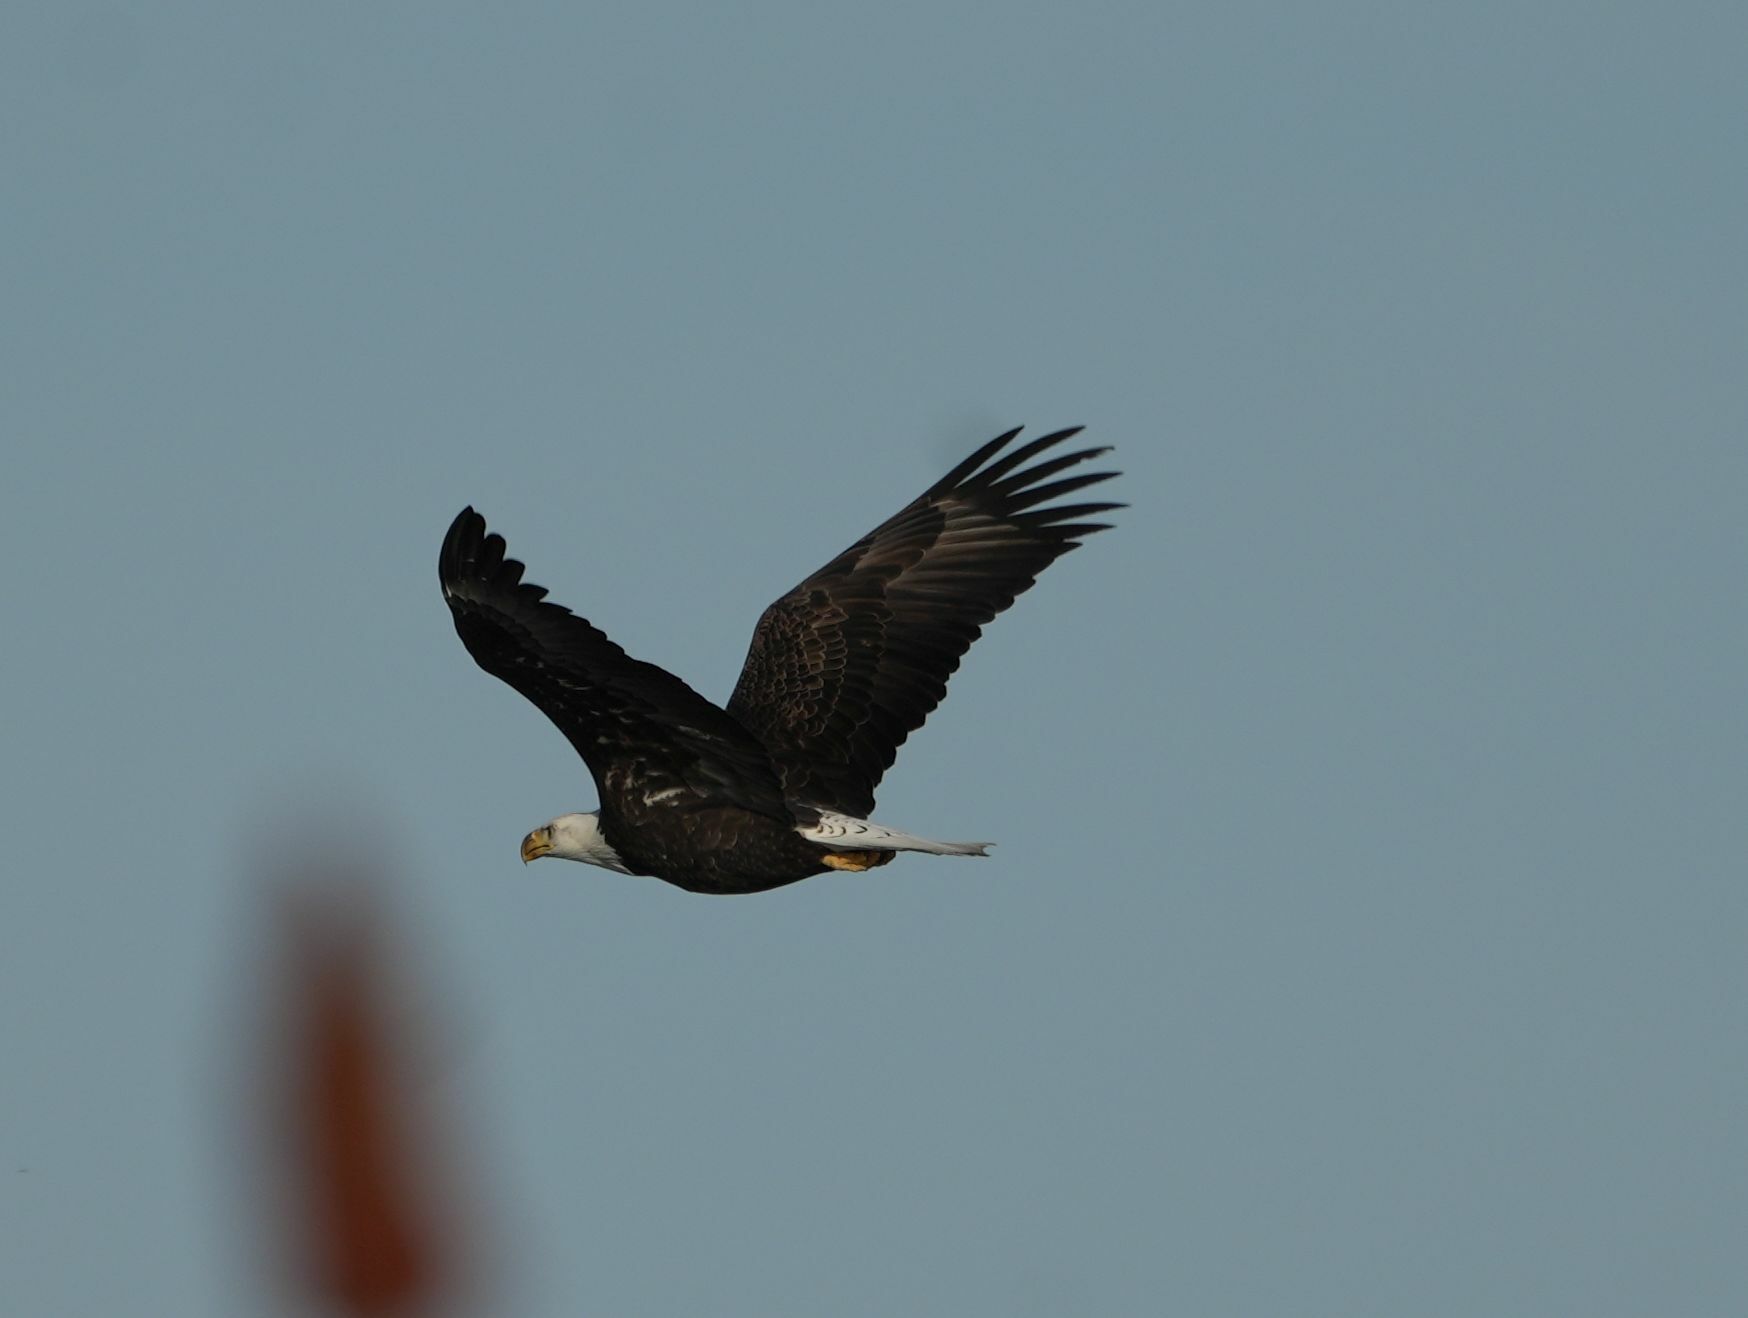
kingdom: Animalia
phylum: Chordata
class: Aves
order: Accipitriformes
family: Accipitridae
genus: Haliaeetus
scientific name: Haliaeetus leucocephalus
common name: Bald eagle
